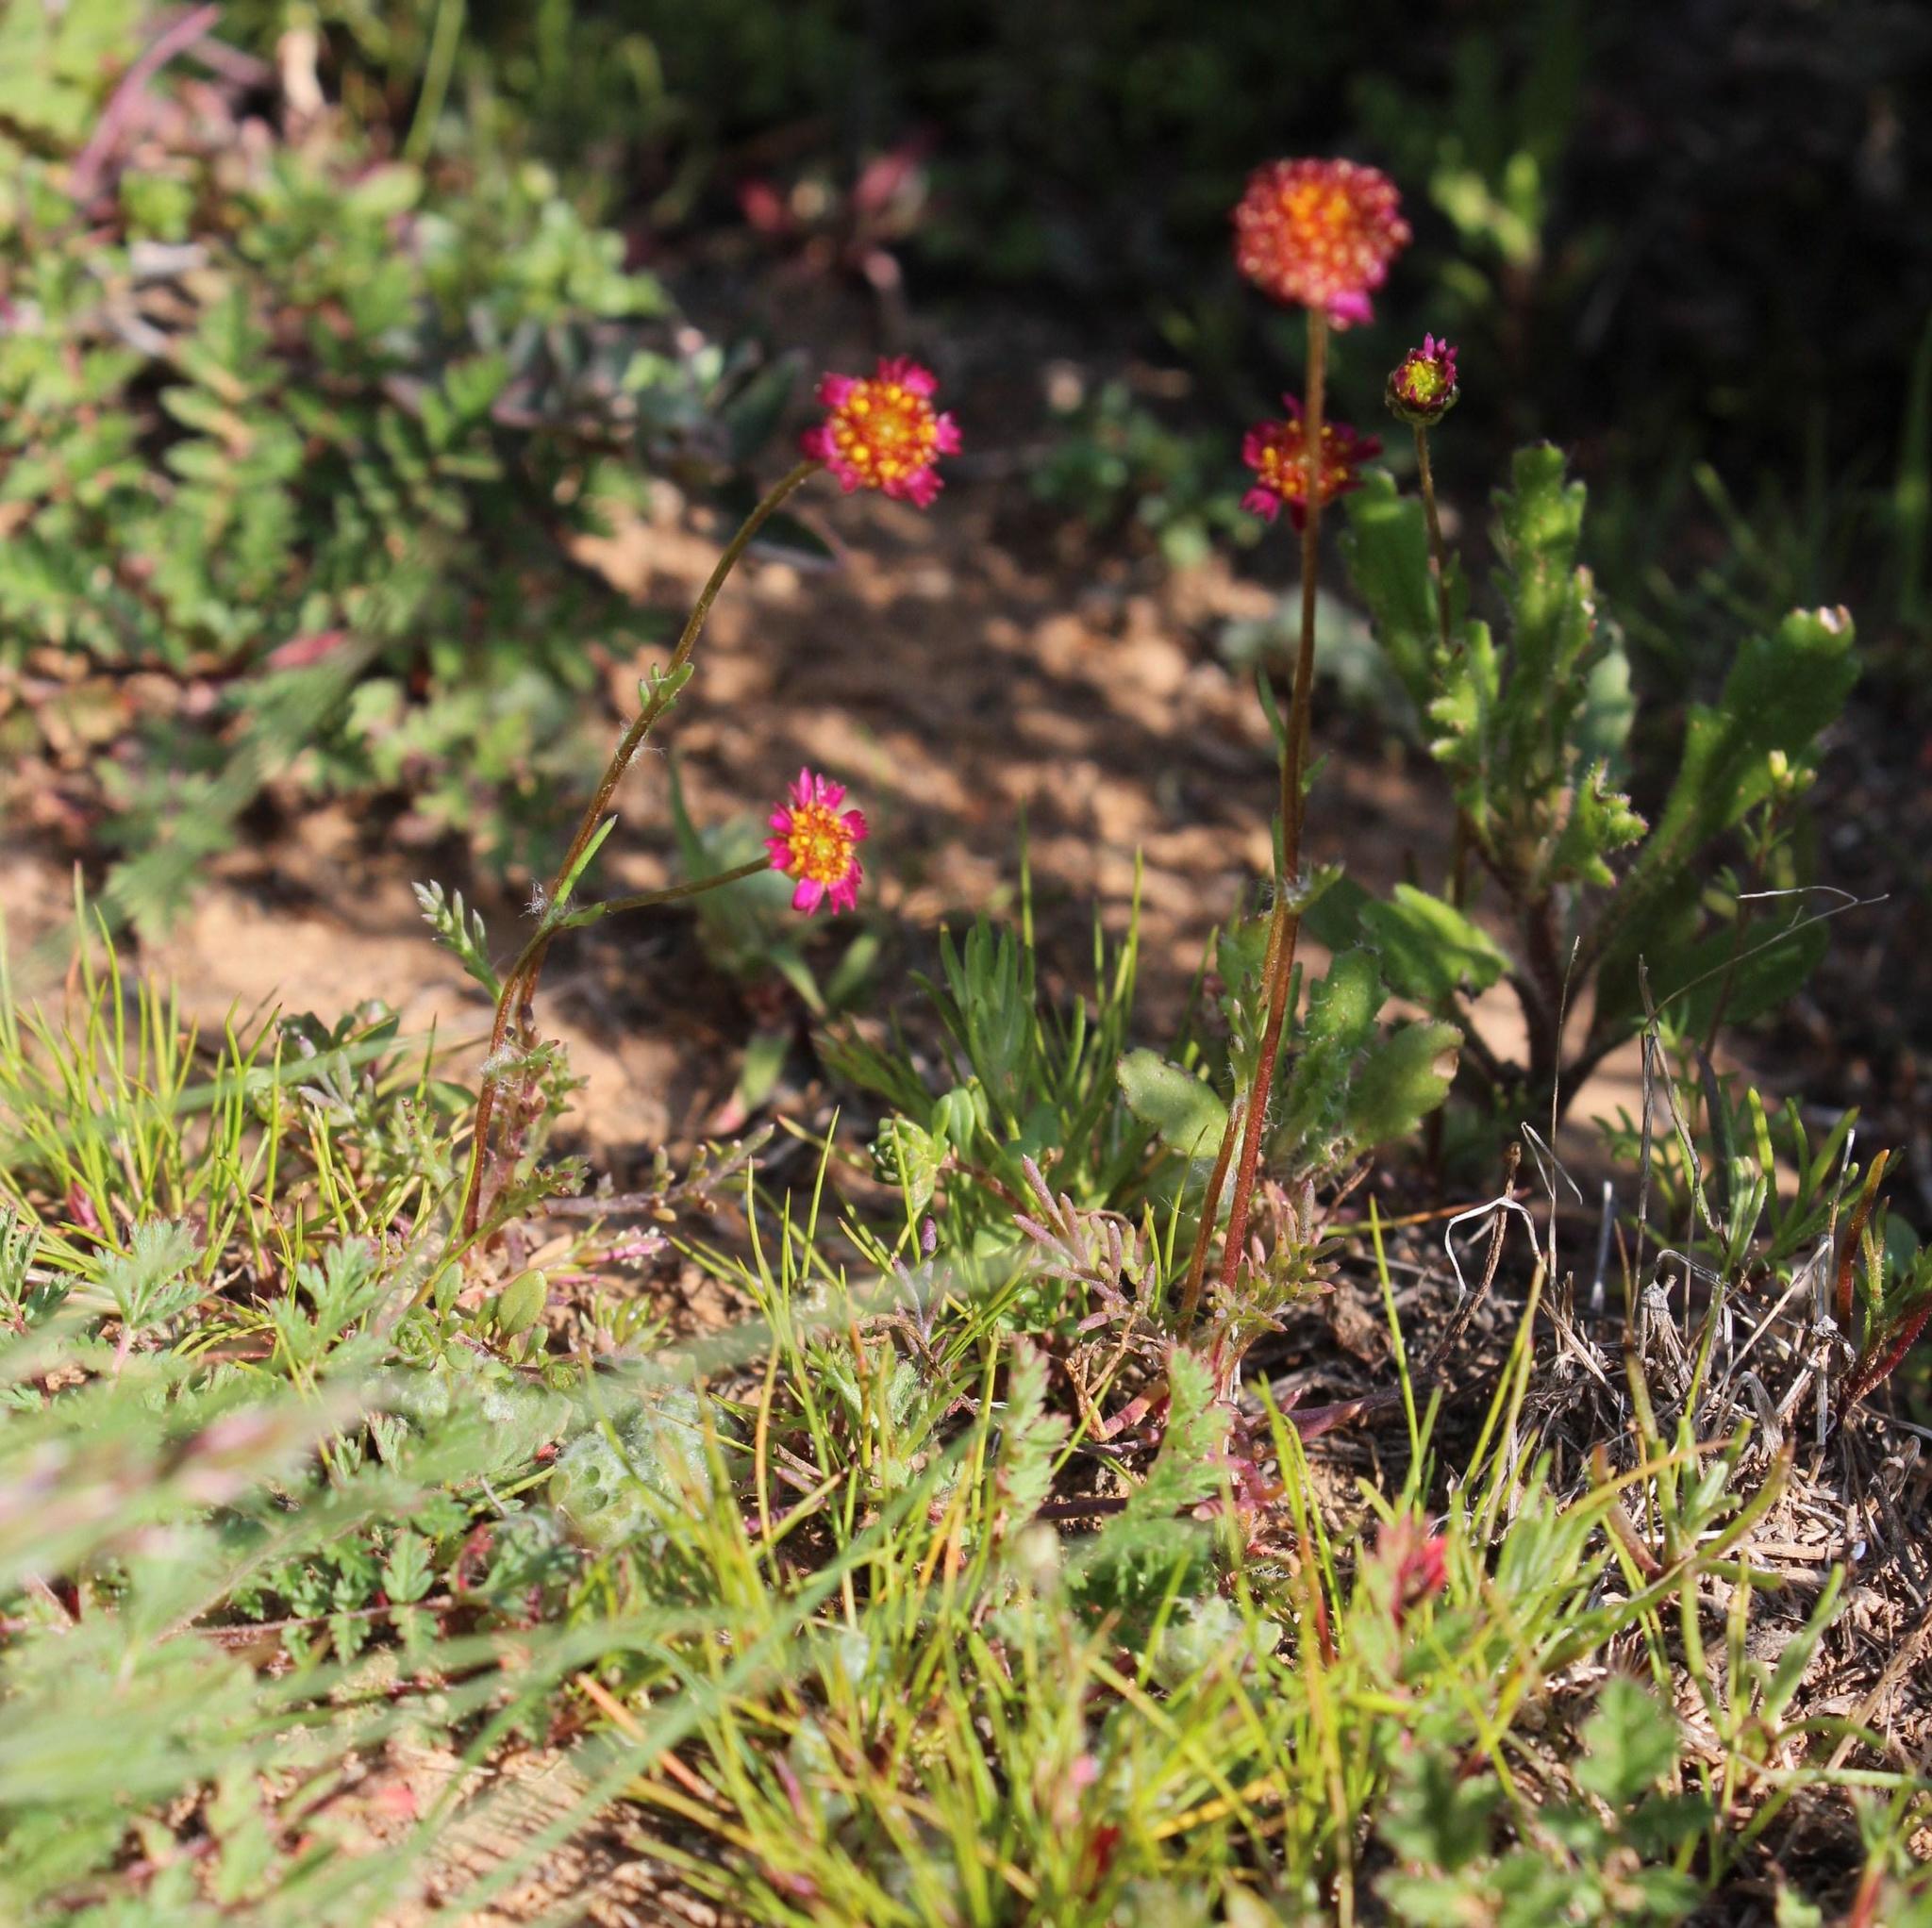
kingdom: Plantae
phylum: Tracheophyta
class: Magnoliopsida
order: Asterales
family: Asteraceae
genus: Lasiospermum
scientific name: Lasiospermum brachyglossum
